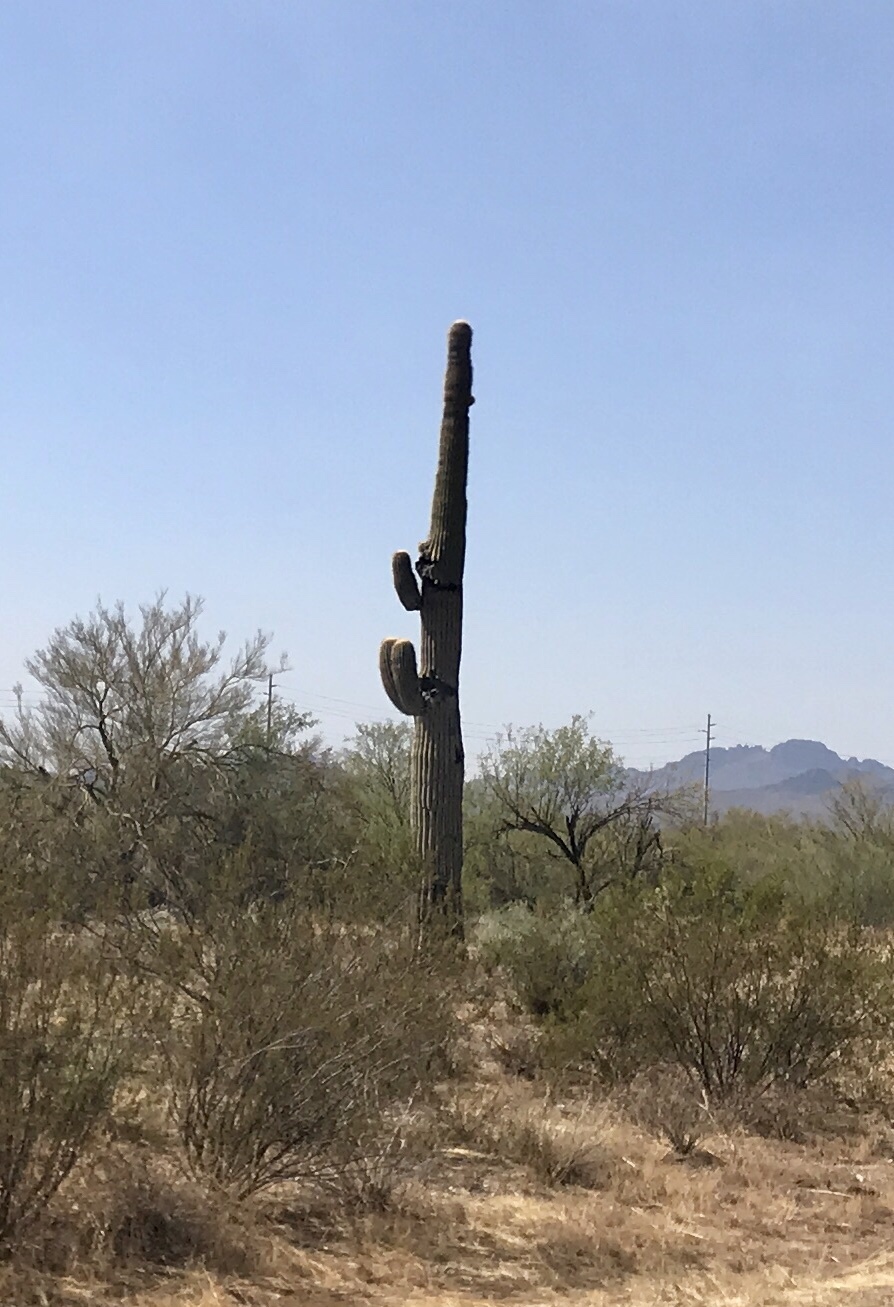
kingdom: Plantae
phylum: Tracheophyta
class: Magnoliopsida
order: Caryophyllales
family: Cactaceae
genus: Carnegiea
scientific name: Carnegiea gigantea
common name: Saguaro
